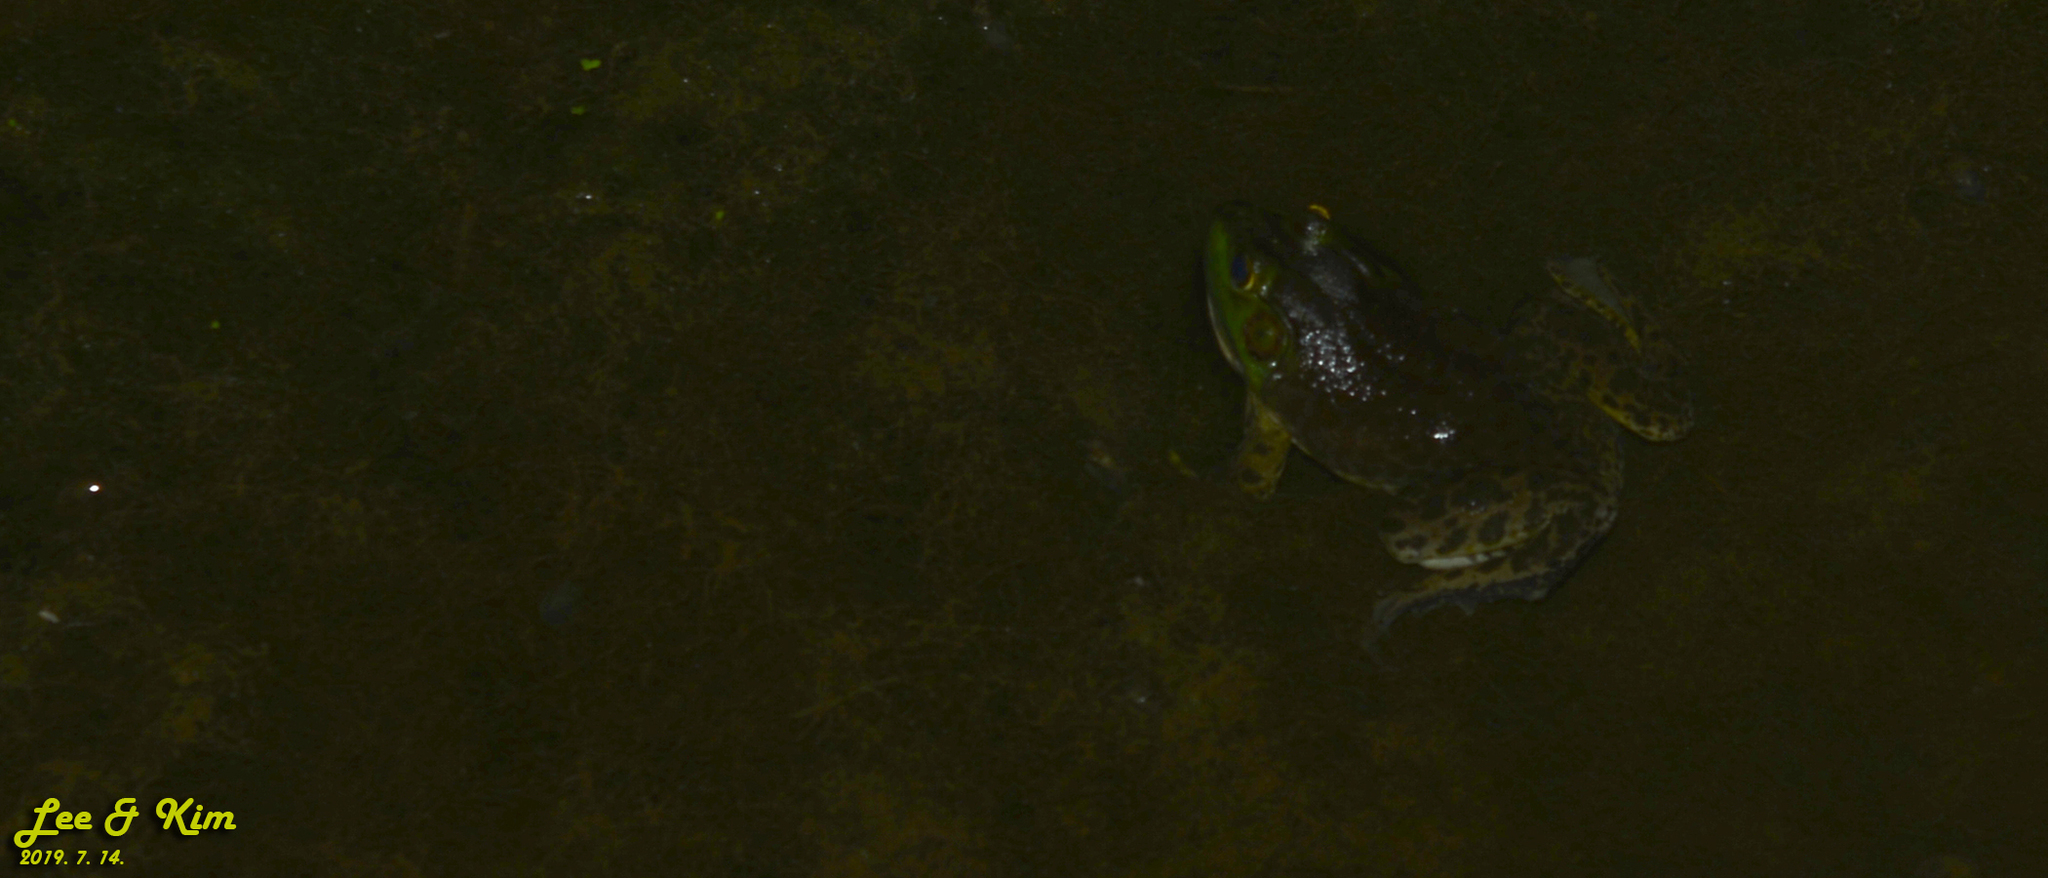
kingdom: Animalia
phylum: Chordata
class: Amphibia
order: Anura
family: Ranidae
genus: Lithobates
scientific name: Lithobates catesbeianus
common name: American bullfrog
